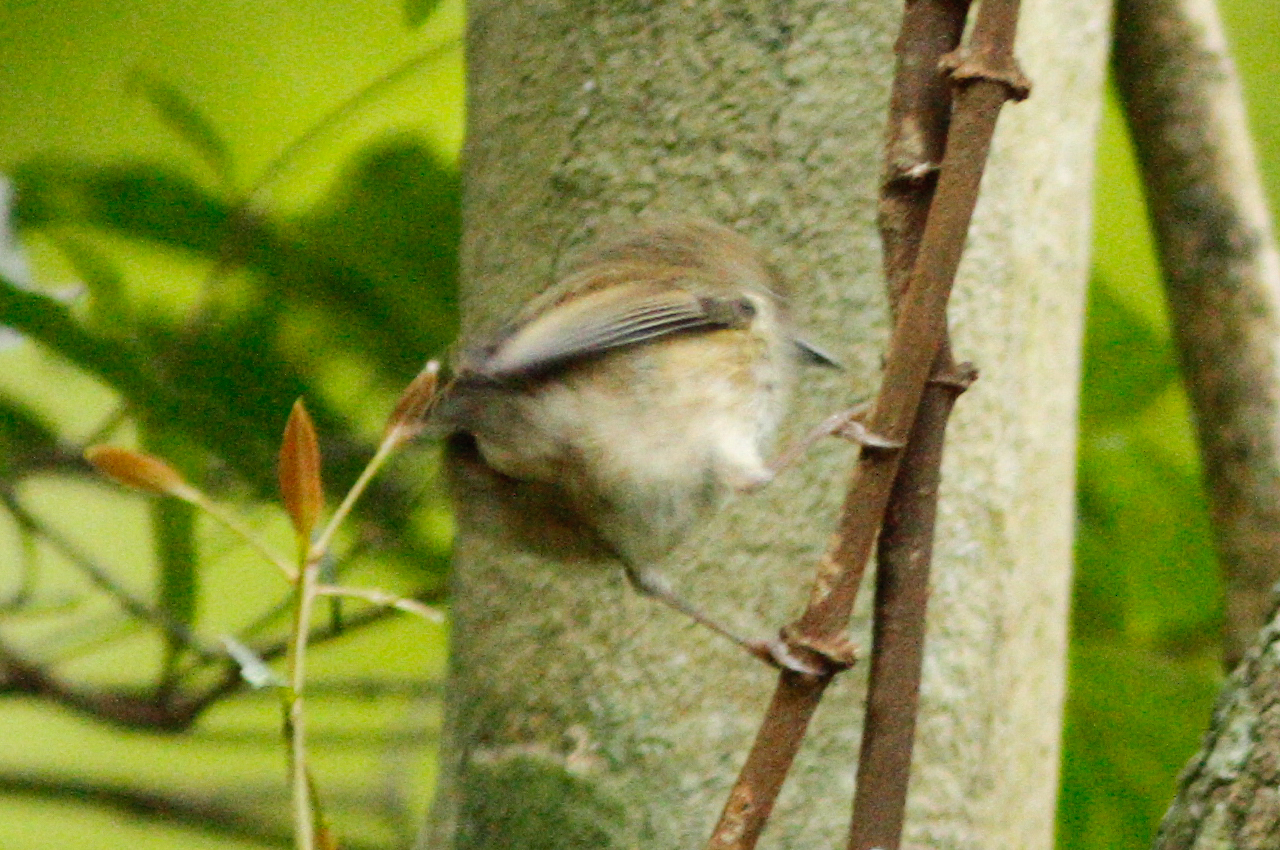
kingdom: Animalia
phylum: Chordata
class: Aves
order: Passeriformes
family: Acanthizidae
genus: Acanthiza
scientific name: Acanthiza pusilla
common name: Brown thornbill
